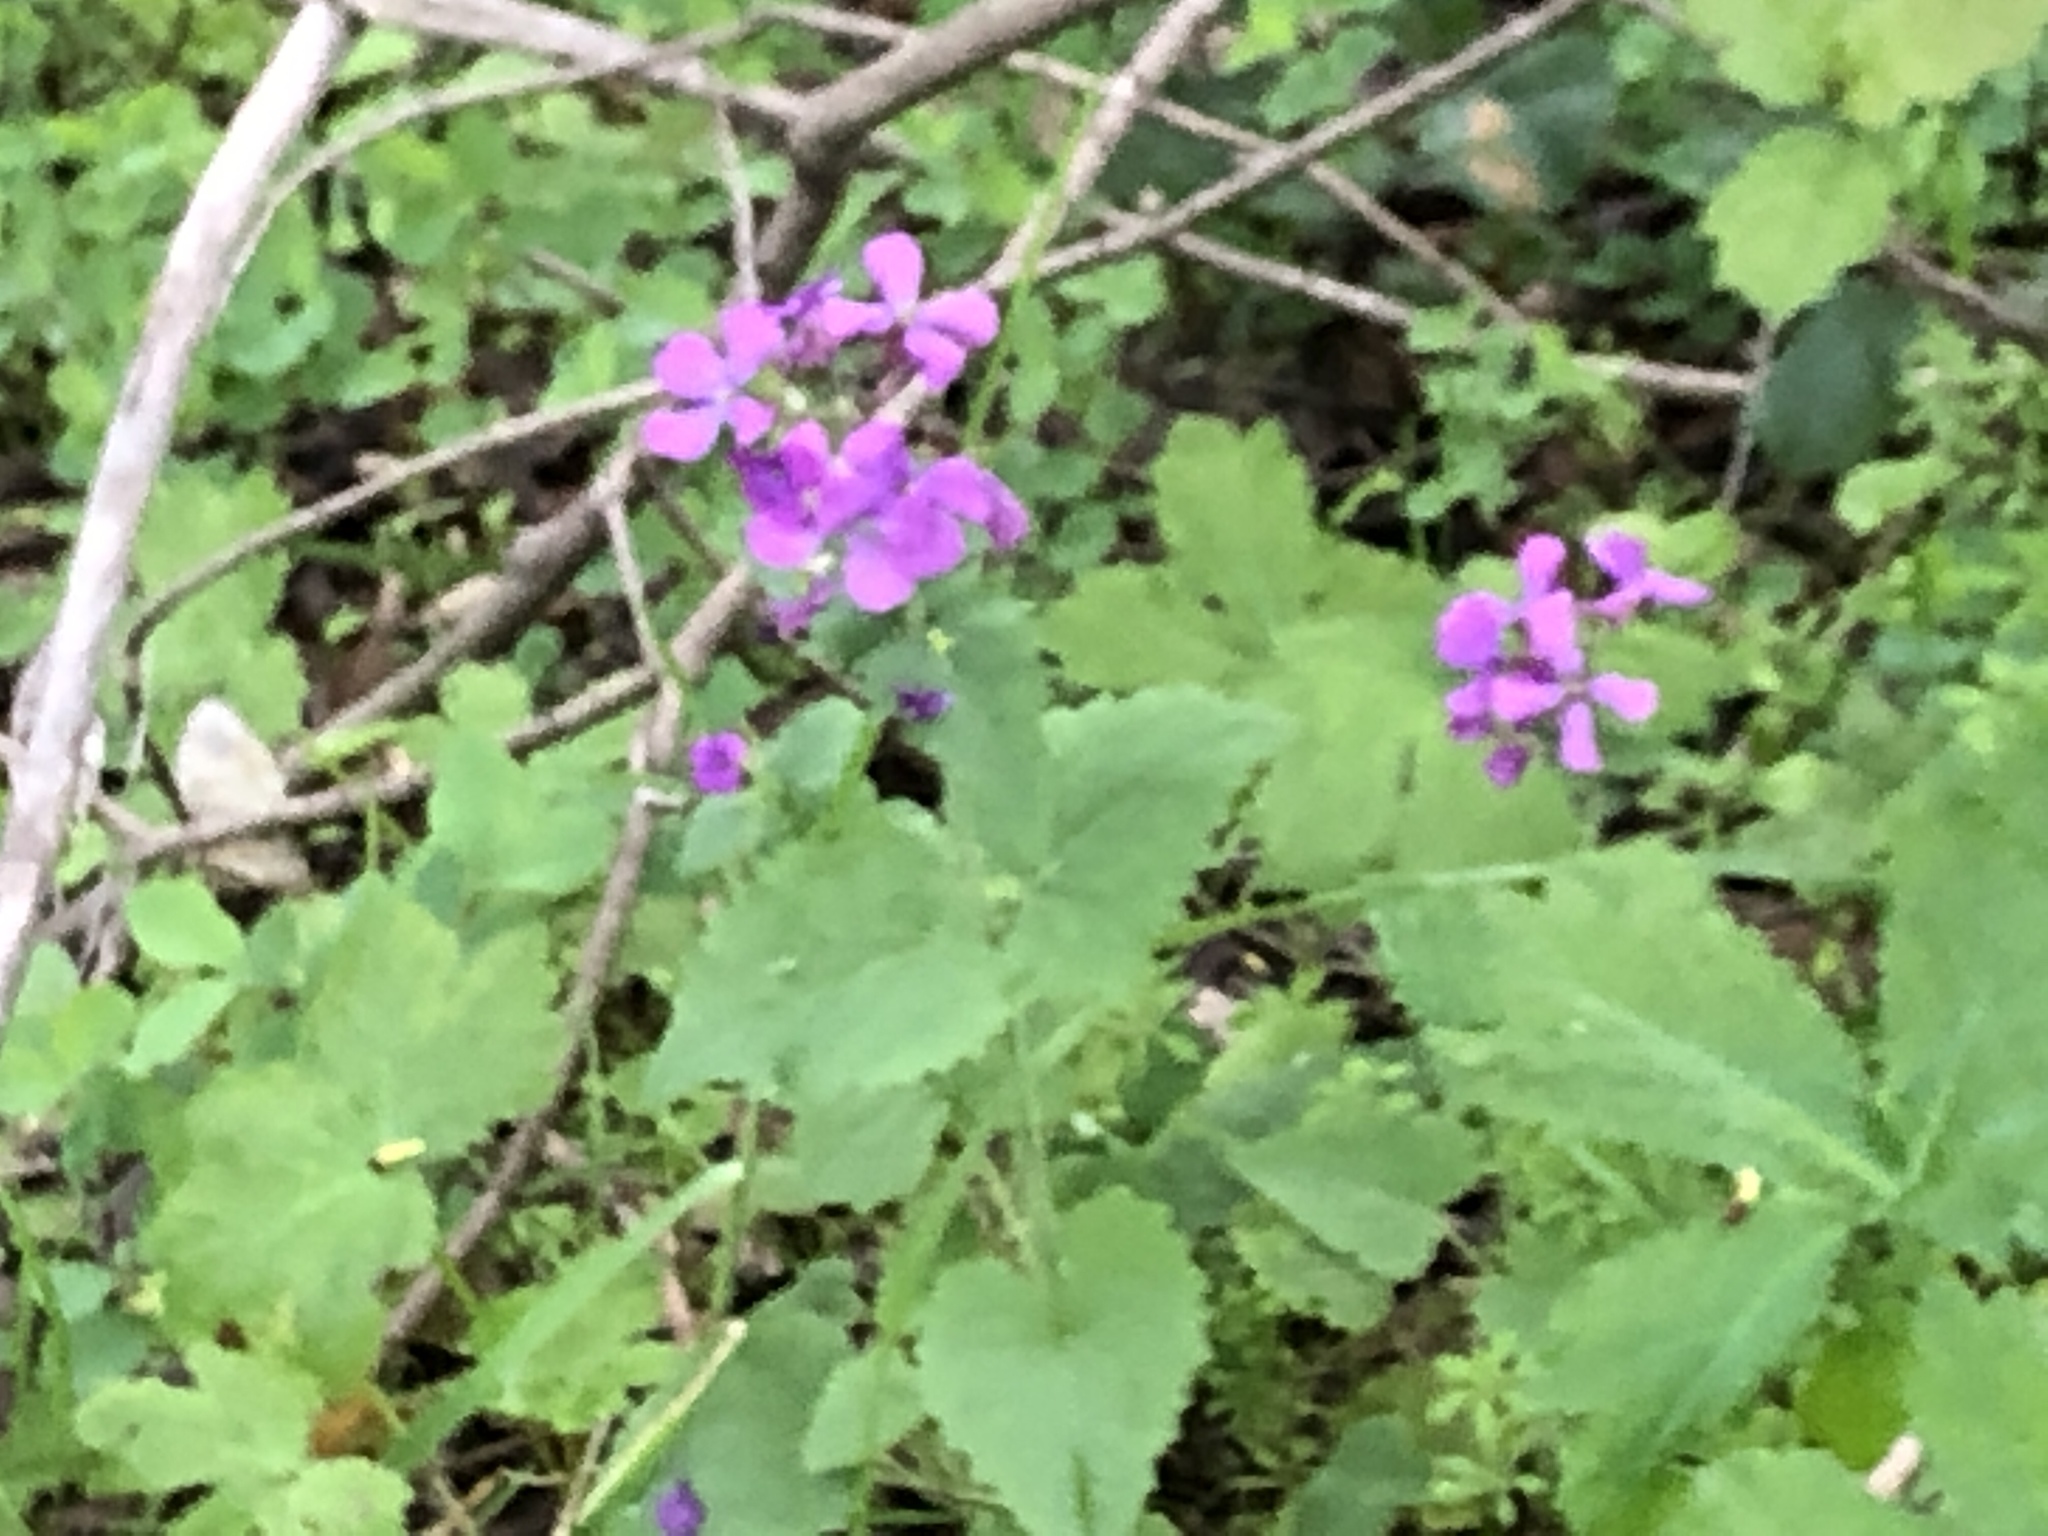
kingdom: Plantae
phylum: Tracheophyta
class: Magnoliopsida
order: Brassicales
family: Brassicaceae
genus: Lunaria
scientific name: Lunaria annua
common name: Honesty
